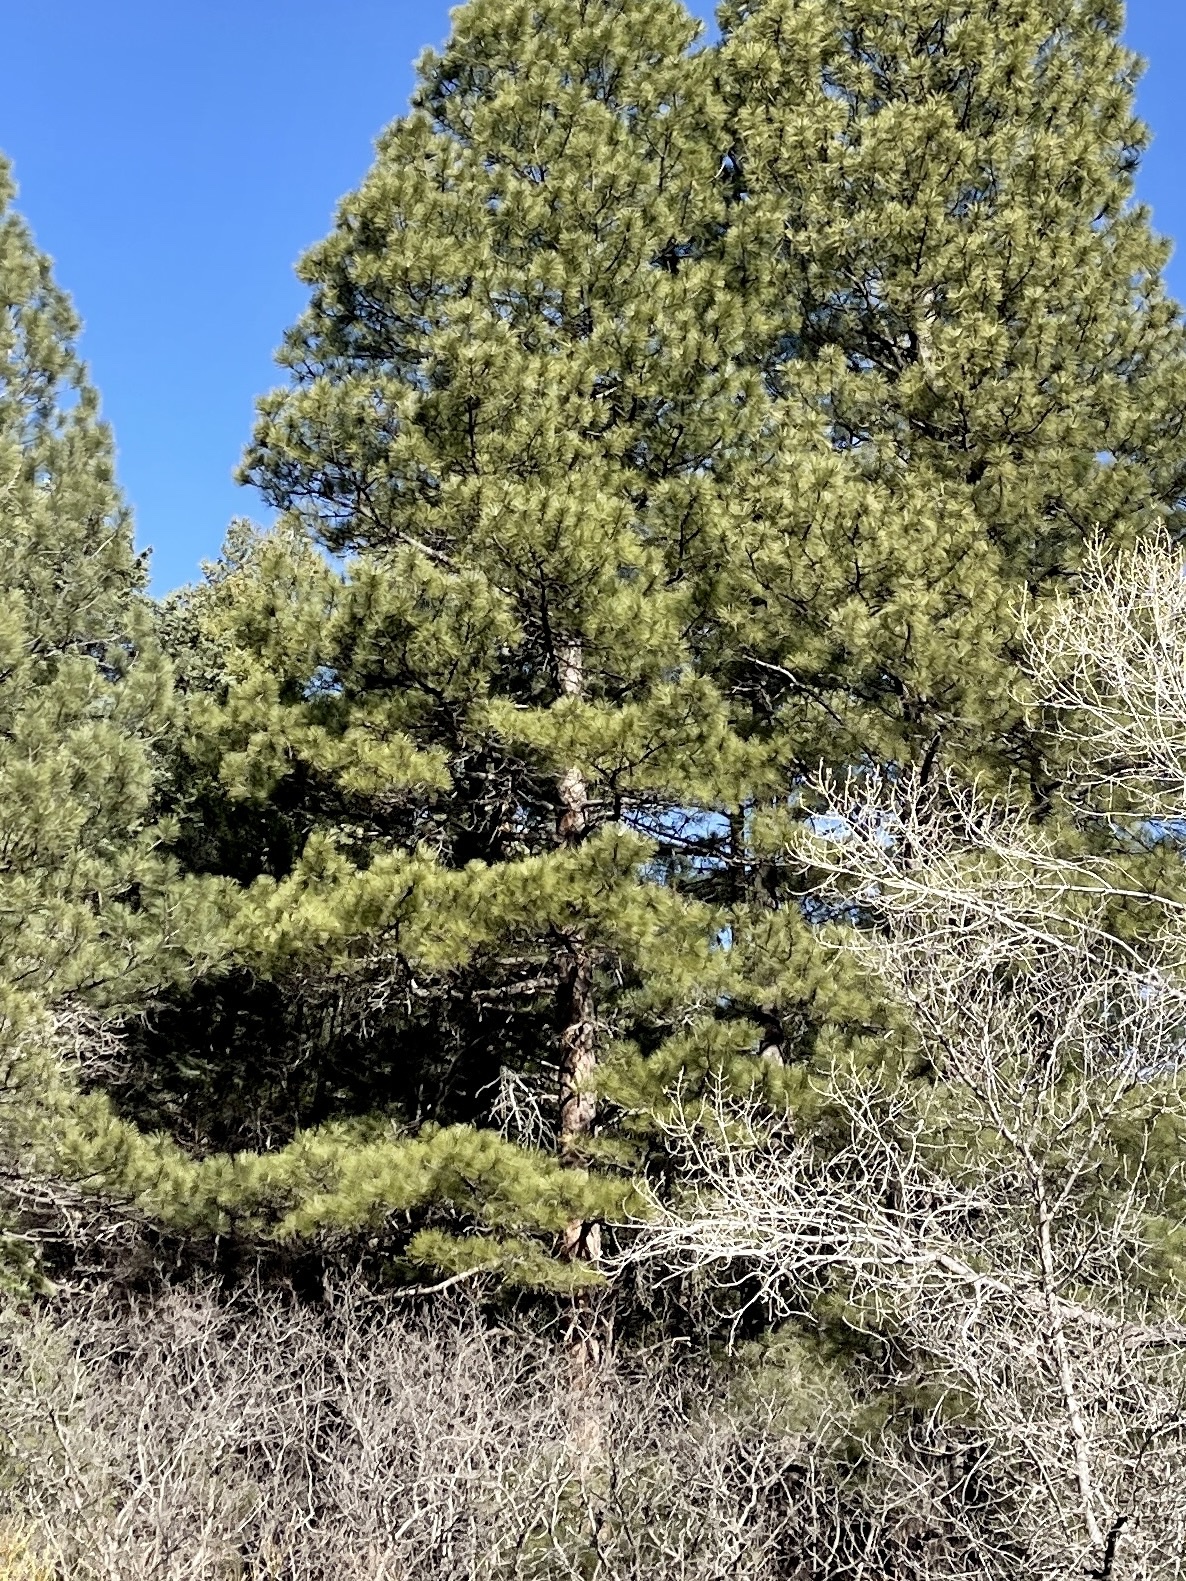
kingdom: Plantae
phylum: Tracheophyta
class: Pinopsida
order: Pinales
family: Pinaceae
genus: Pinus
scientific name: Pinus ponderosa
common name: Western yellow-pine
